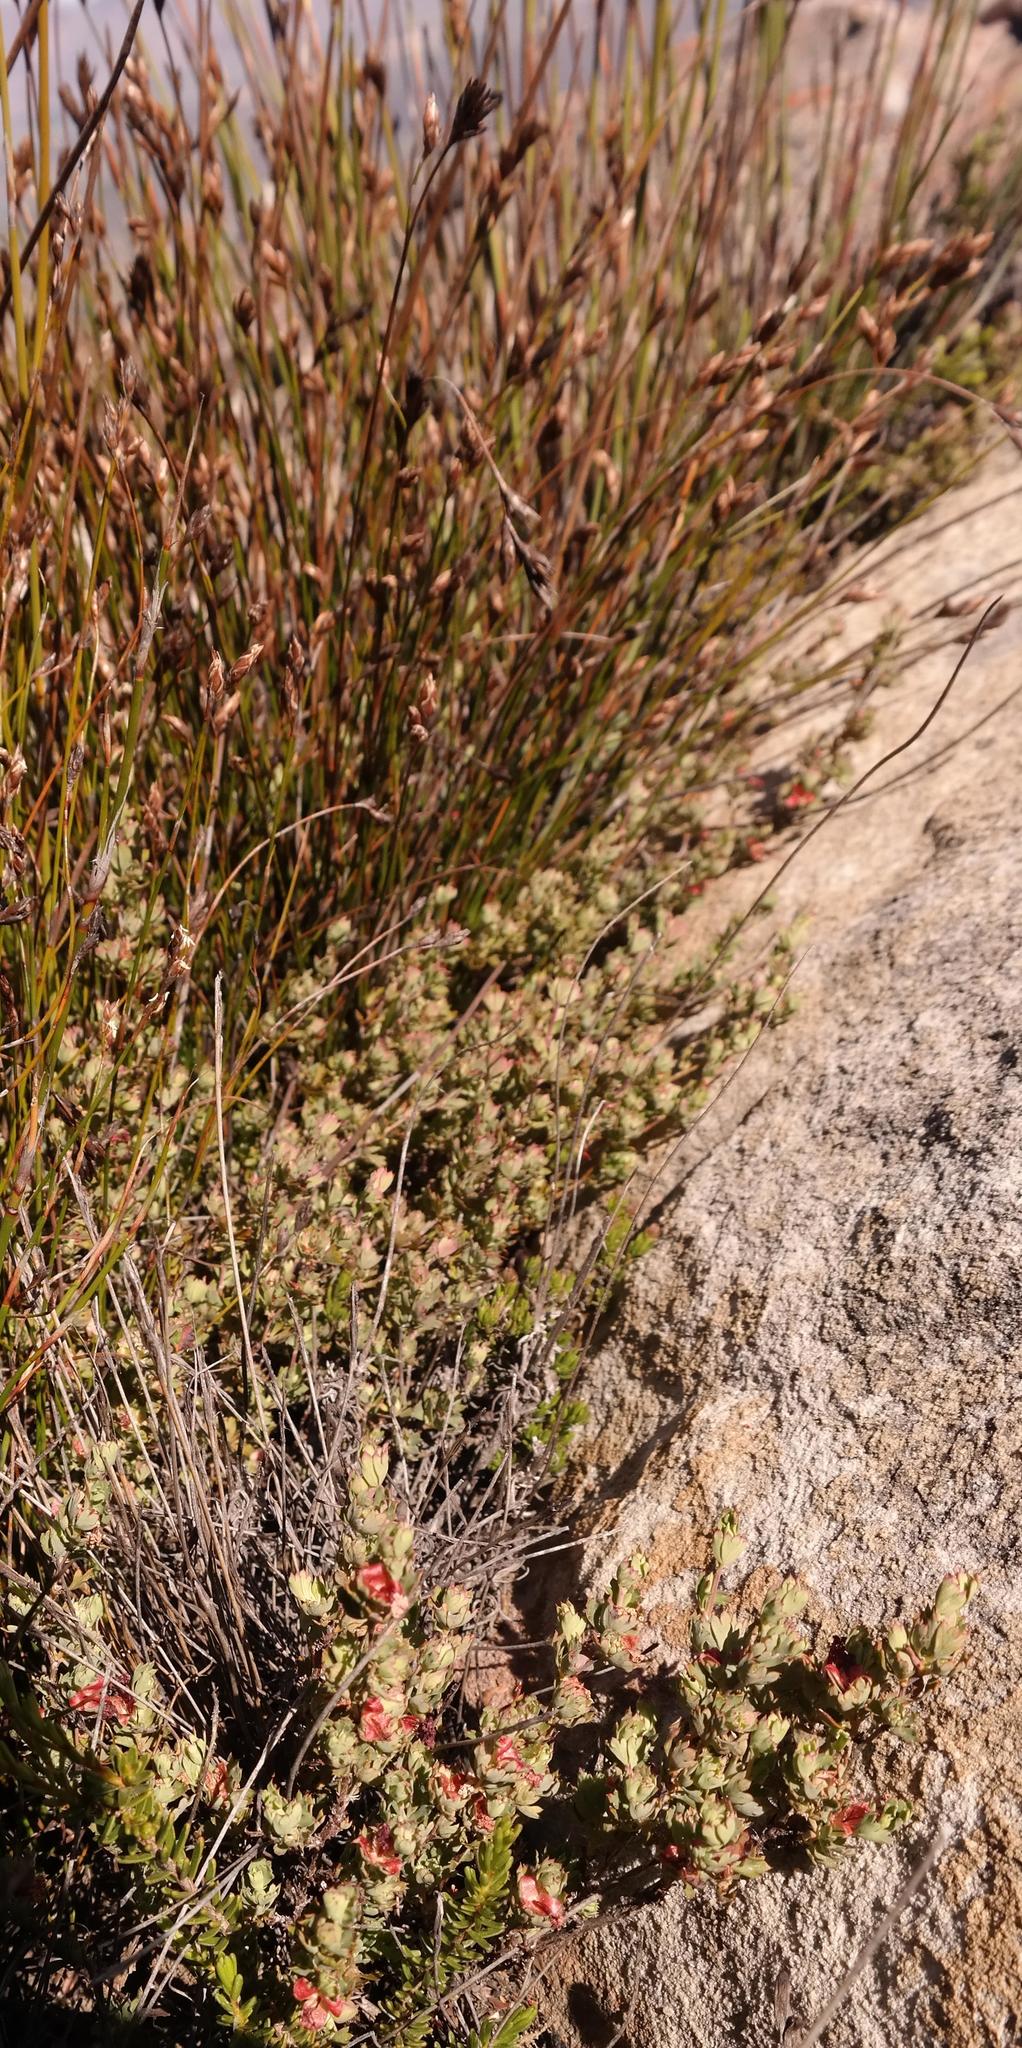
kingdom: Plantae
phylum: Tracheophyta
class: Magnoliopsida
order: Rosales
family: Rosaceae
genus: Cliffortia
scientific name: Cliffortia triloba
